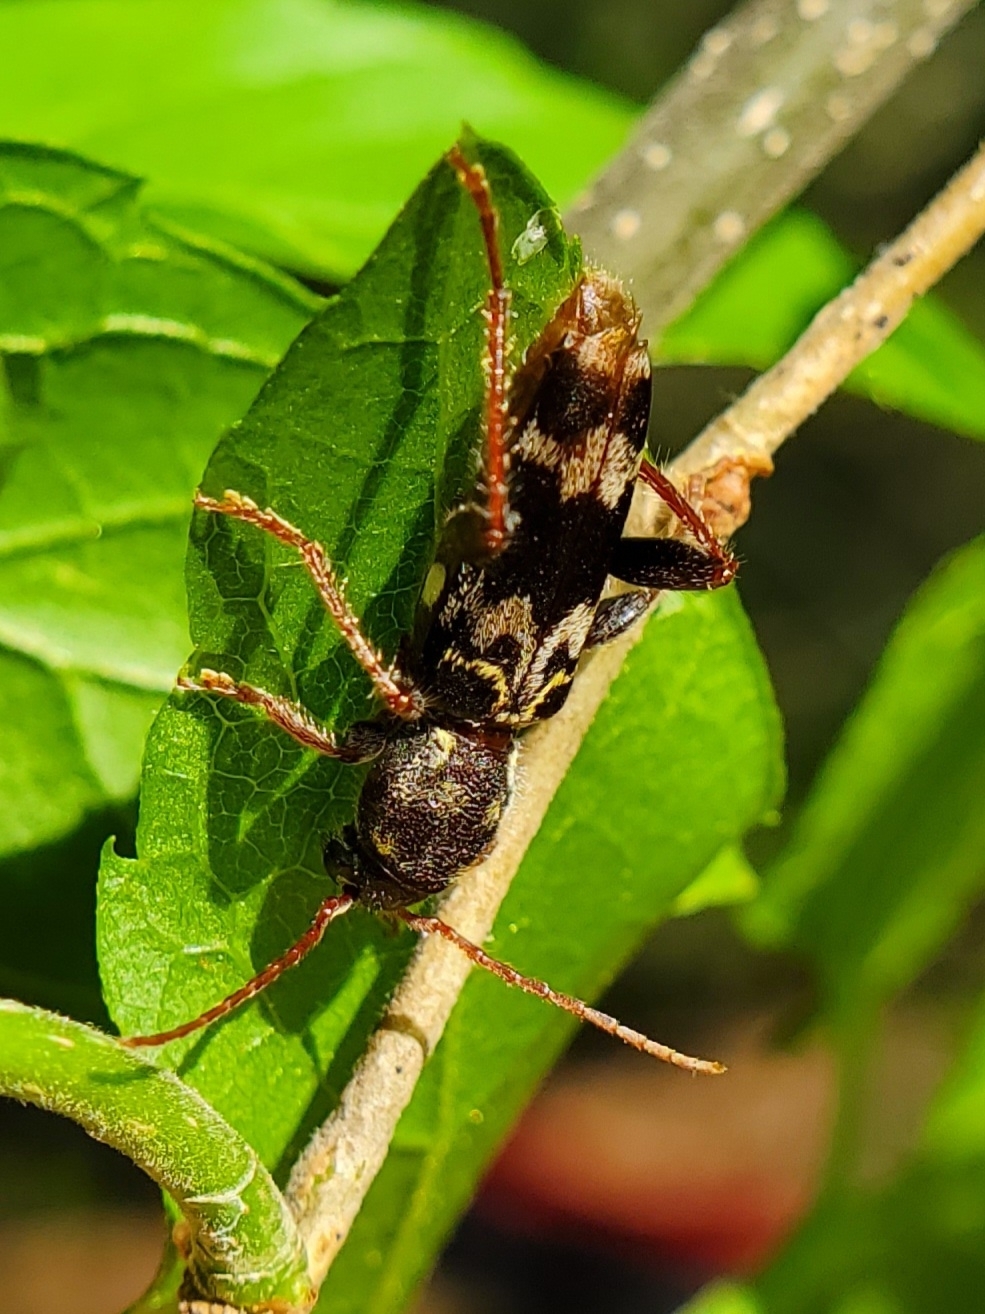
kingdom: Animalia
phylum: Arthropoda
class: Insecta
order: Coleoptera
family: Cerambycidae
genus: Xylotrechus
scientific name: Xylotrechus colonus
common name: Long-horned beetle
